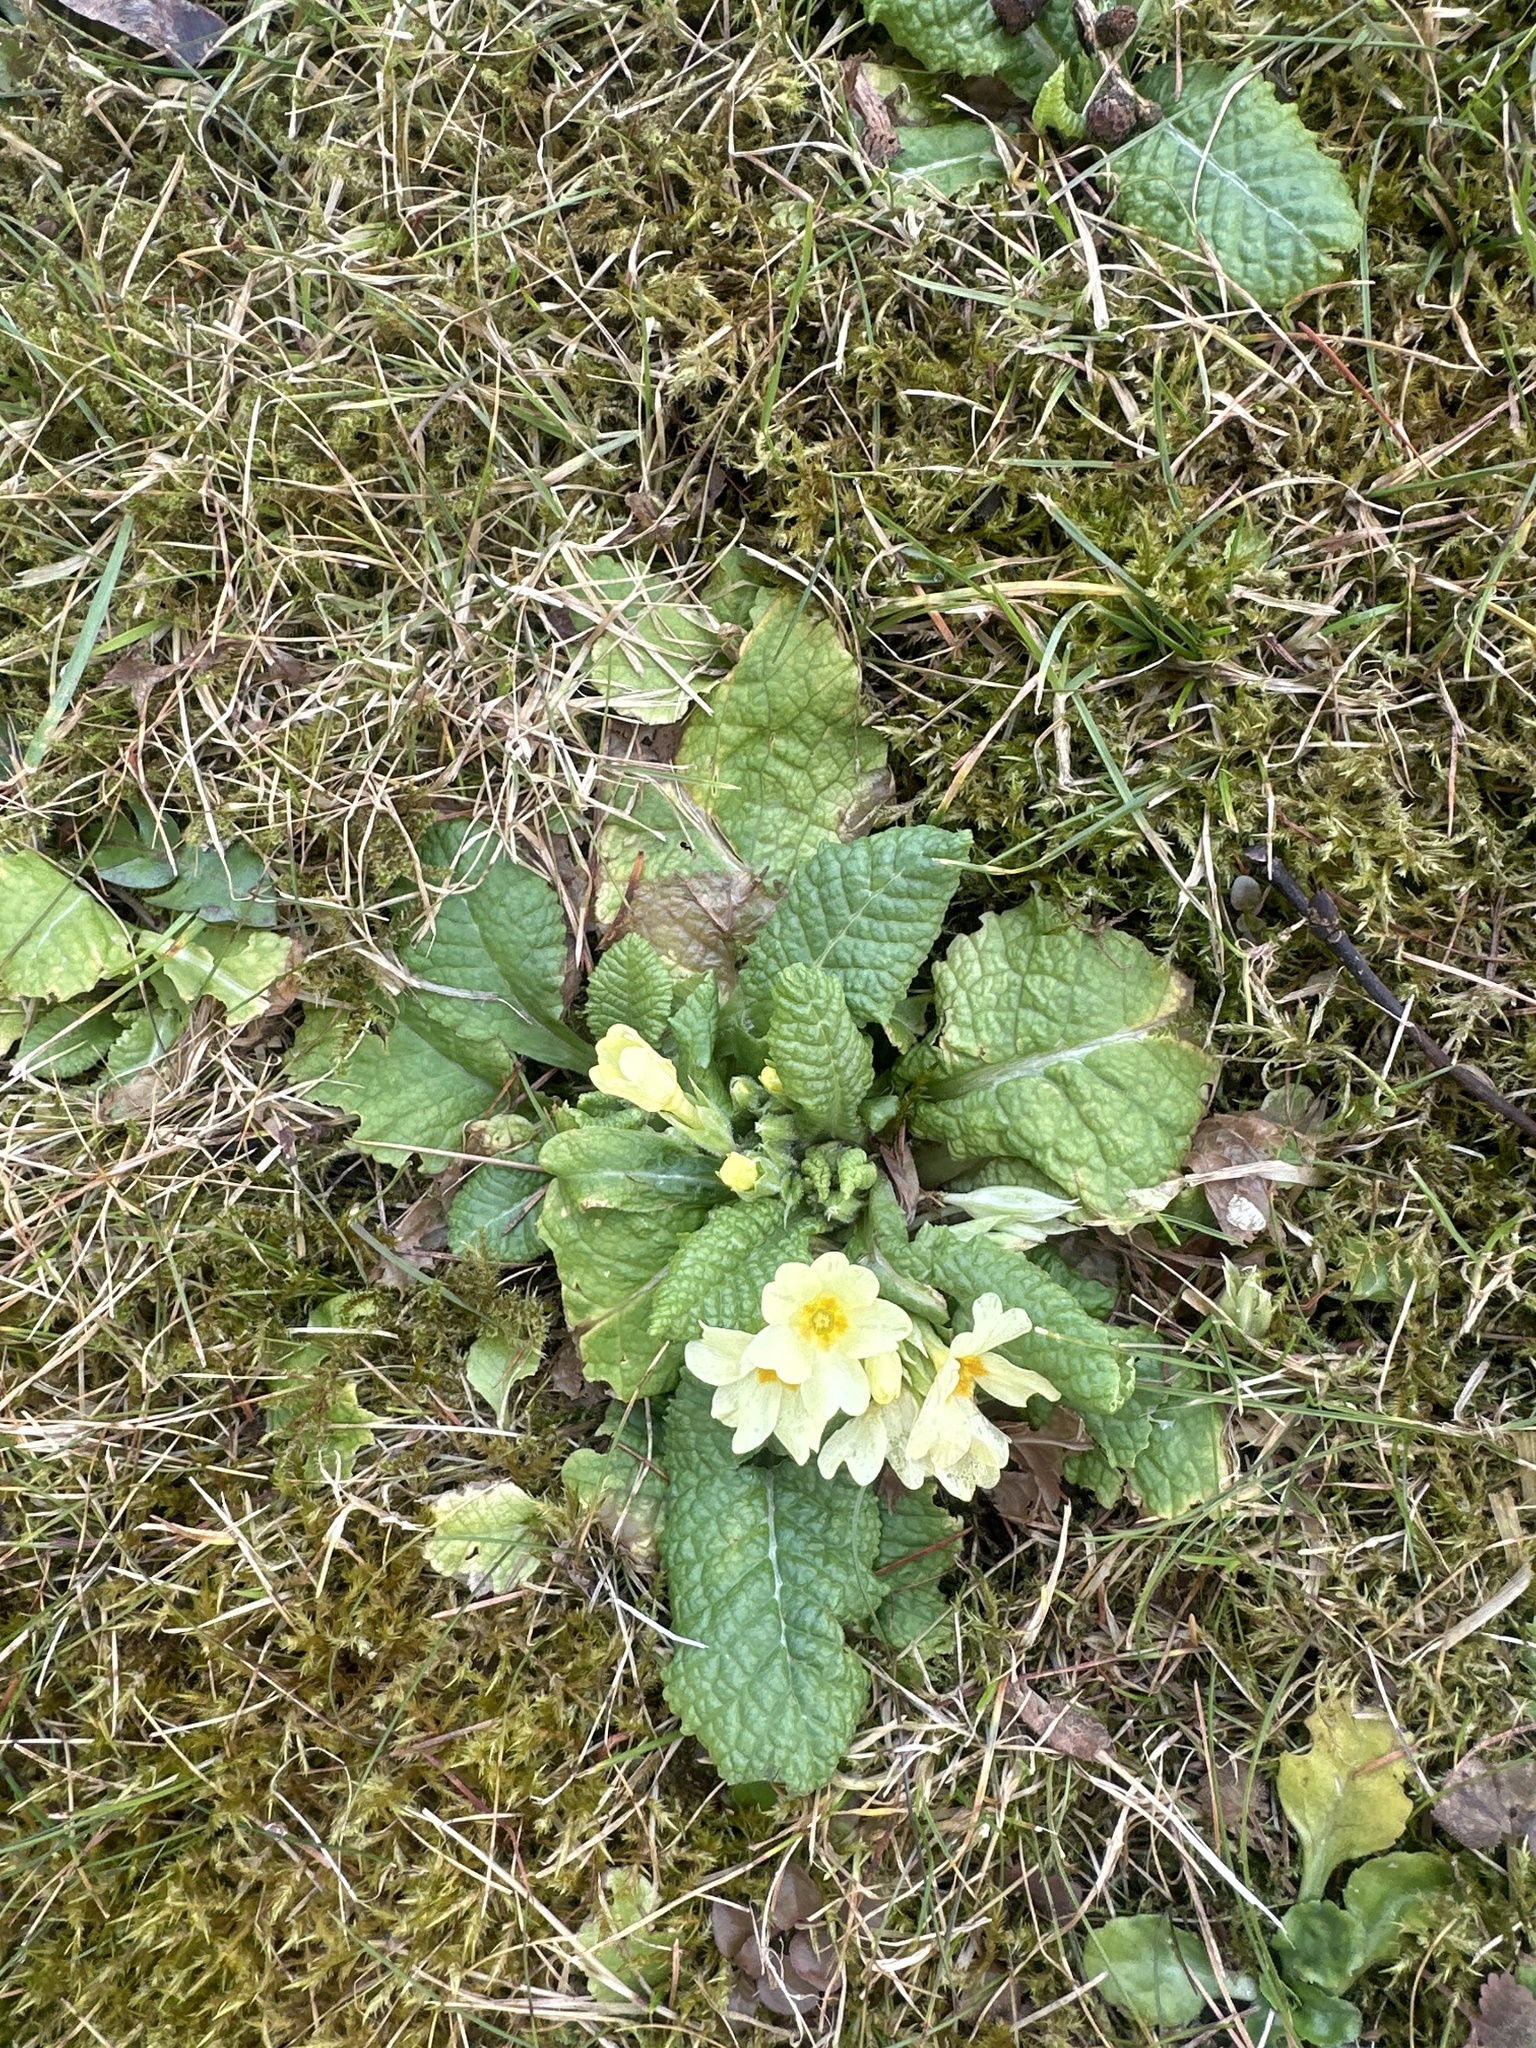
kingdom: Plantae
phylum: Tracheophyta
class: Magnoliopsida
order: Ericales
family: Primulaceae
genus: Primula
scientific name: Primula vulgaris
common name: Primrose
